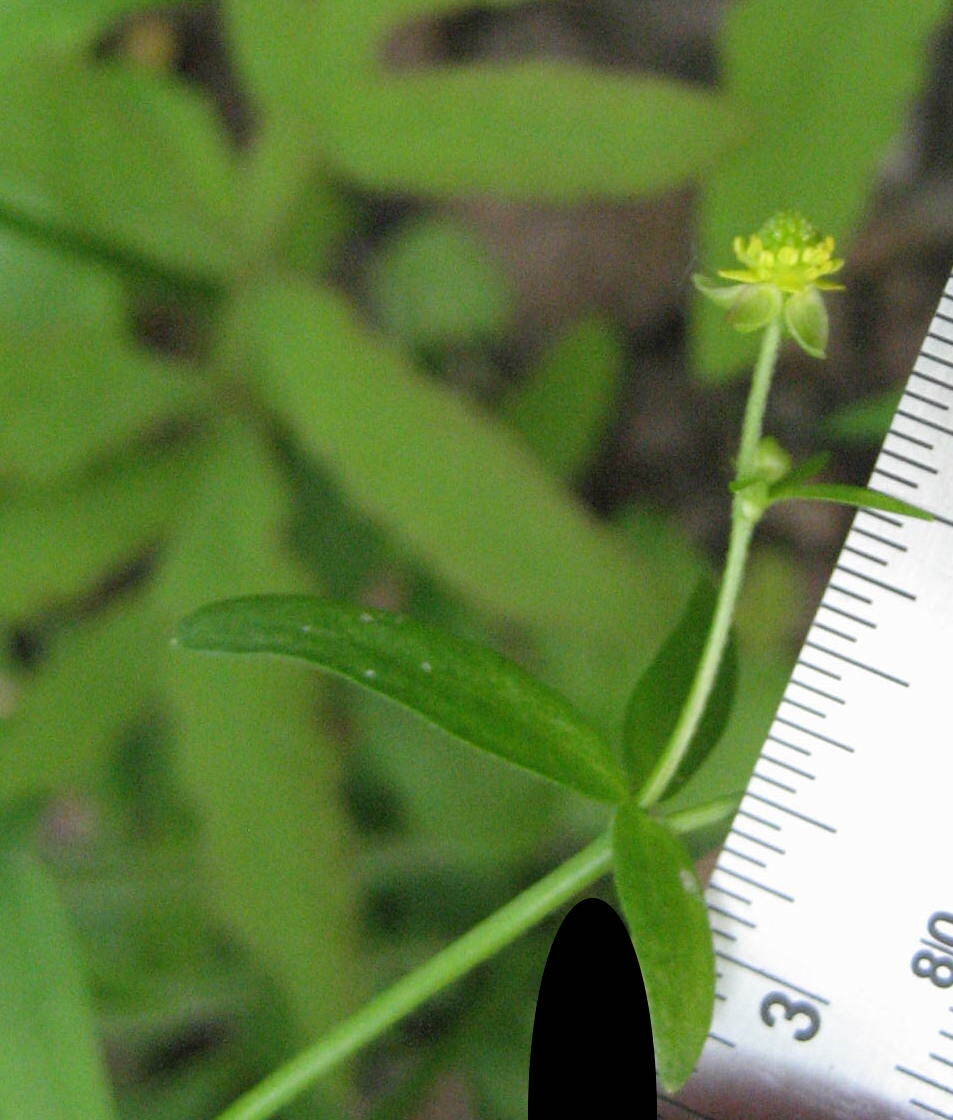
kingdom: Plantae
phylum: Tracheophyta
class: Magnoliopsida
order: Ranunculales
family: Ranunculaceae
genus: Ranunculus
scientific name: Ranunculus abortivus
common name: Early wood buttercup
